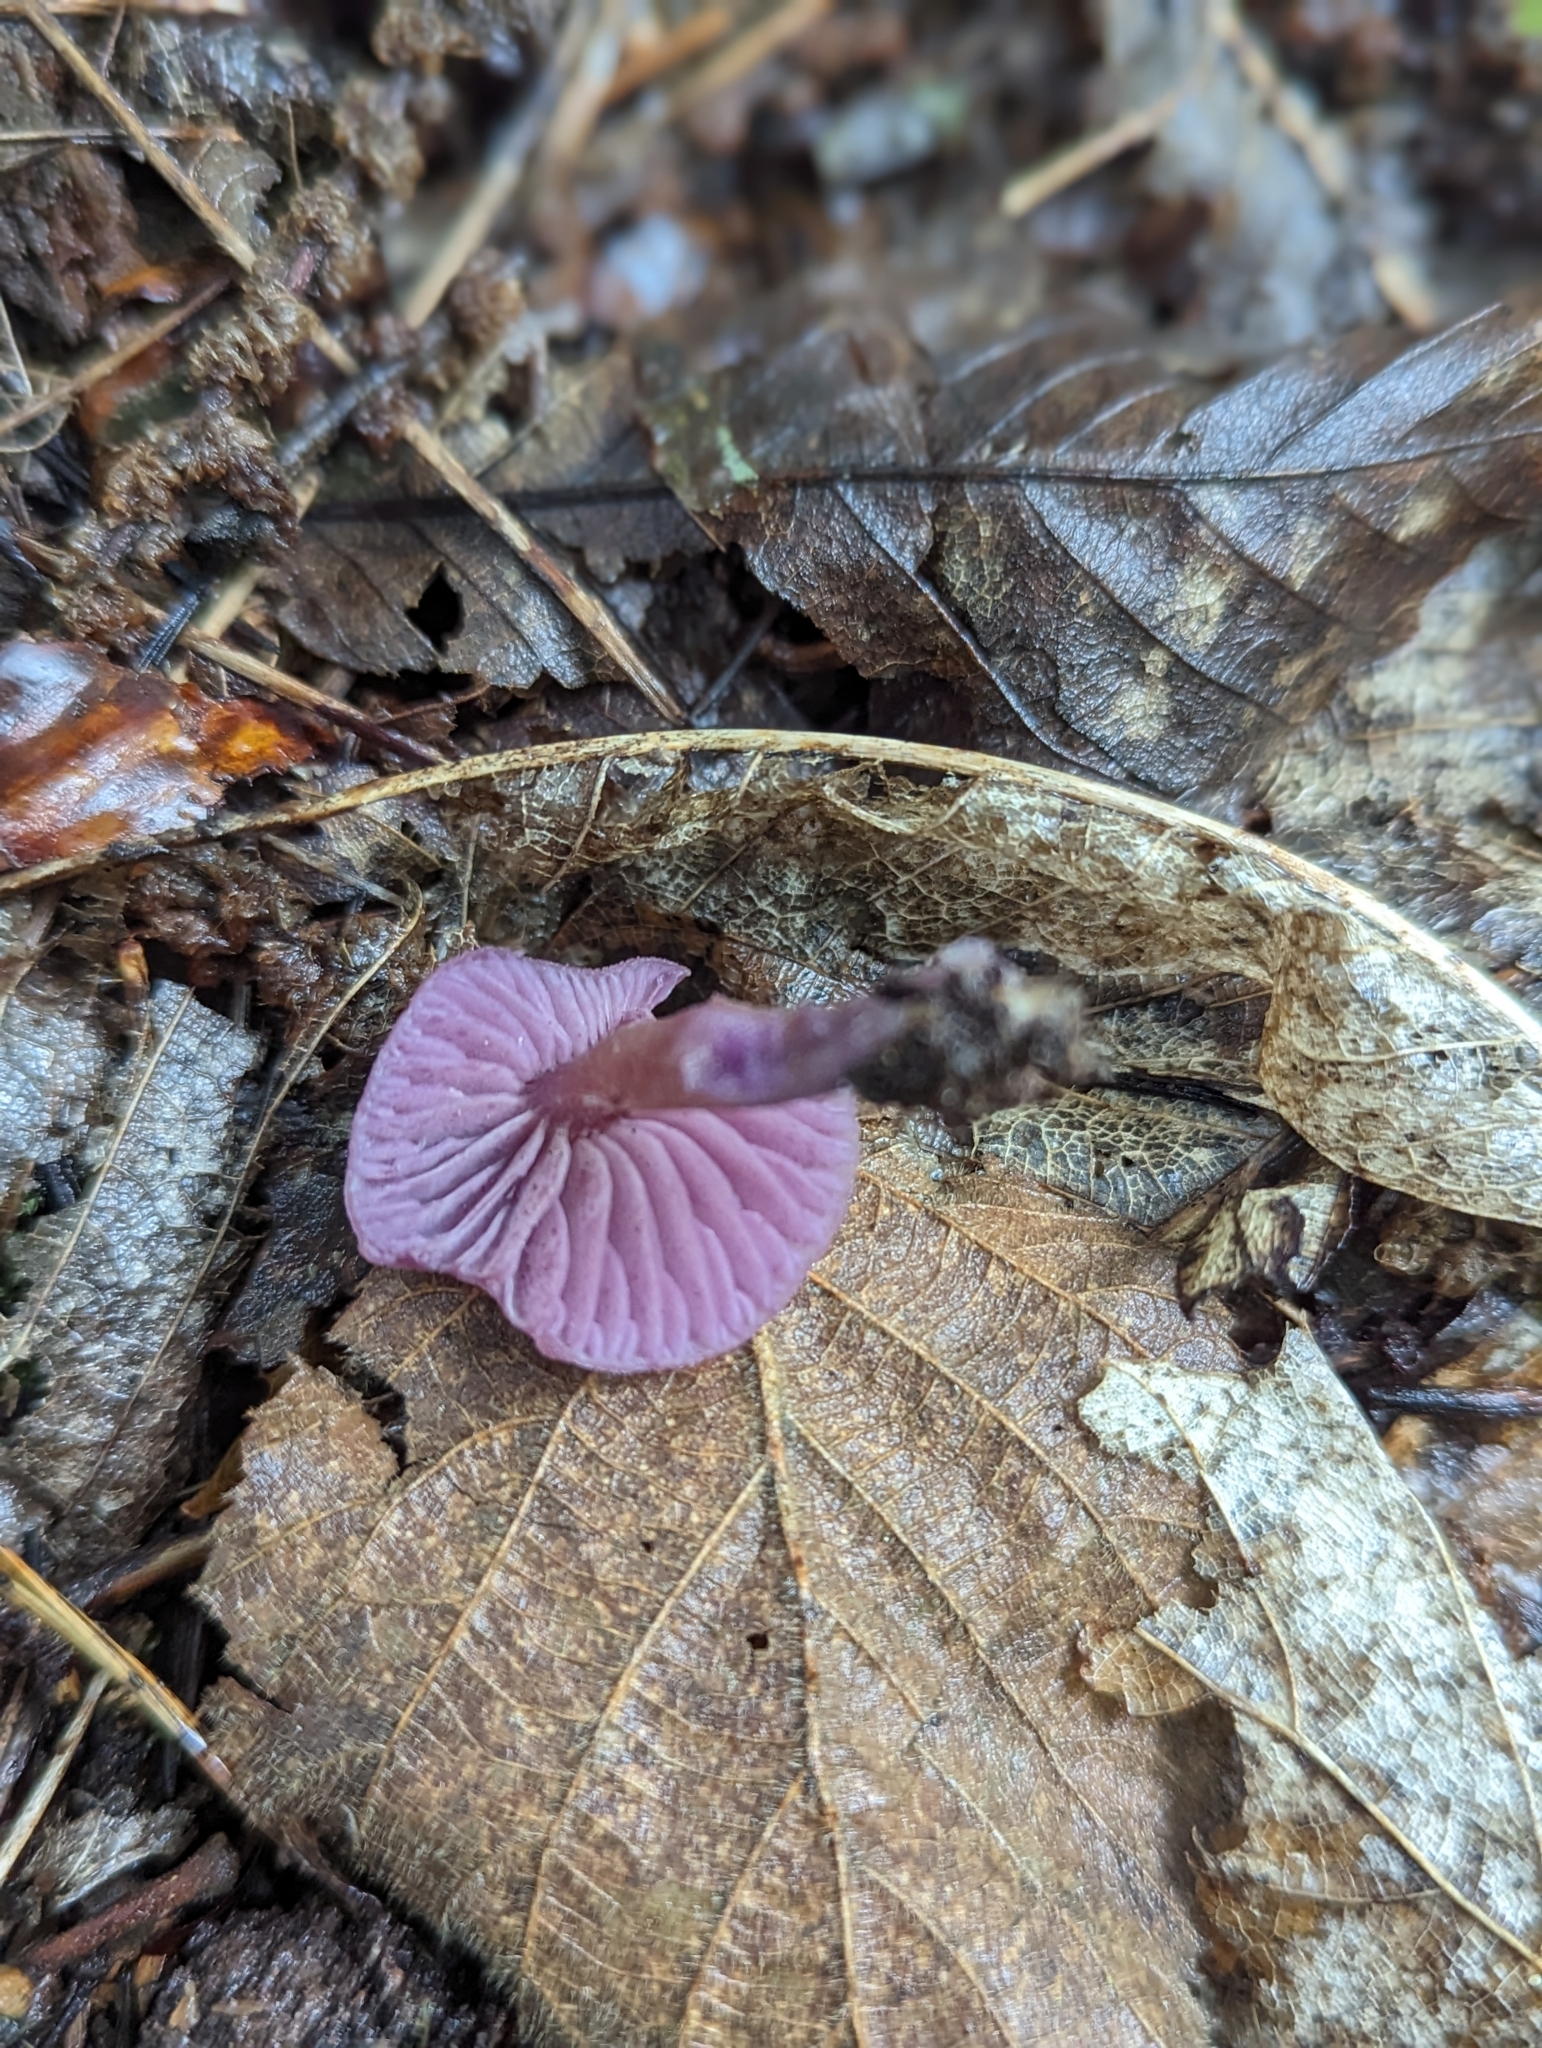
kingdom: Fungi
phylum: Basidiomycota
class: Agaricomycetes
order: Agaricales
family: Hydnangiaceae
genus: Laccaria
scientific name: Laccaria amethystina
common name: Amethyst deceiver
